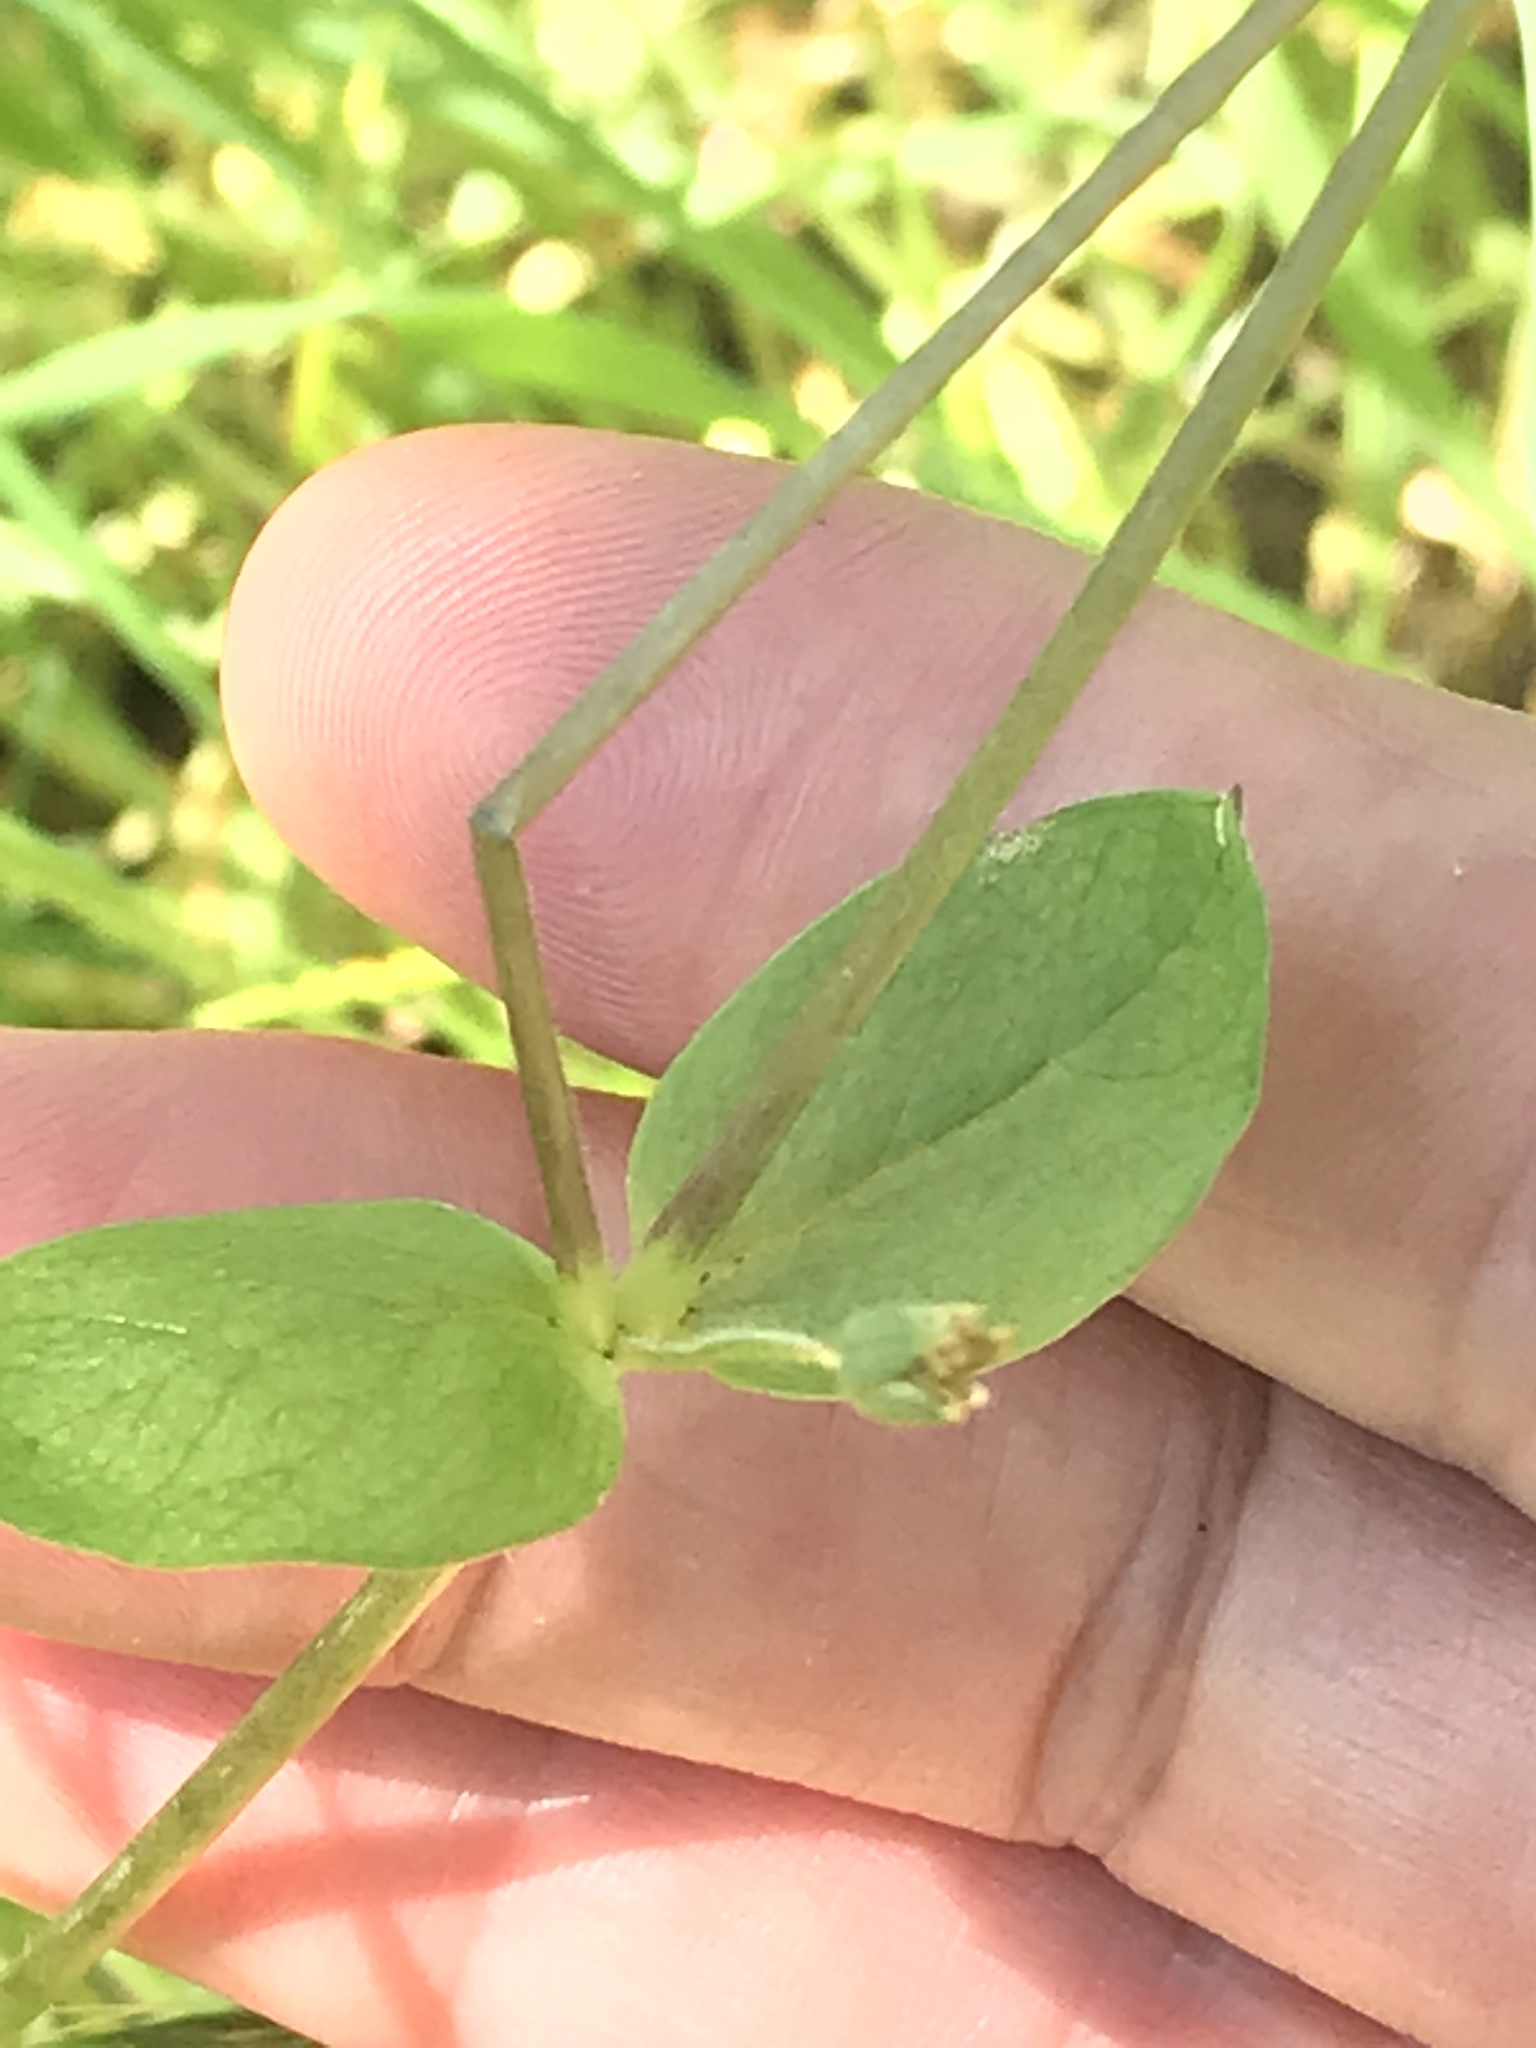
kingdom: Plantae
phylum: Tracheophyta
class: Magnoliopsida
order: Caryophyllales
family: Caryophyllaceae
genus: Stellaria
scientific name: Stellaria media
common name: Common chickweed
